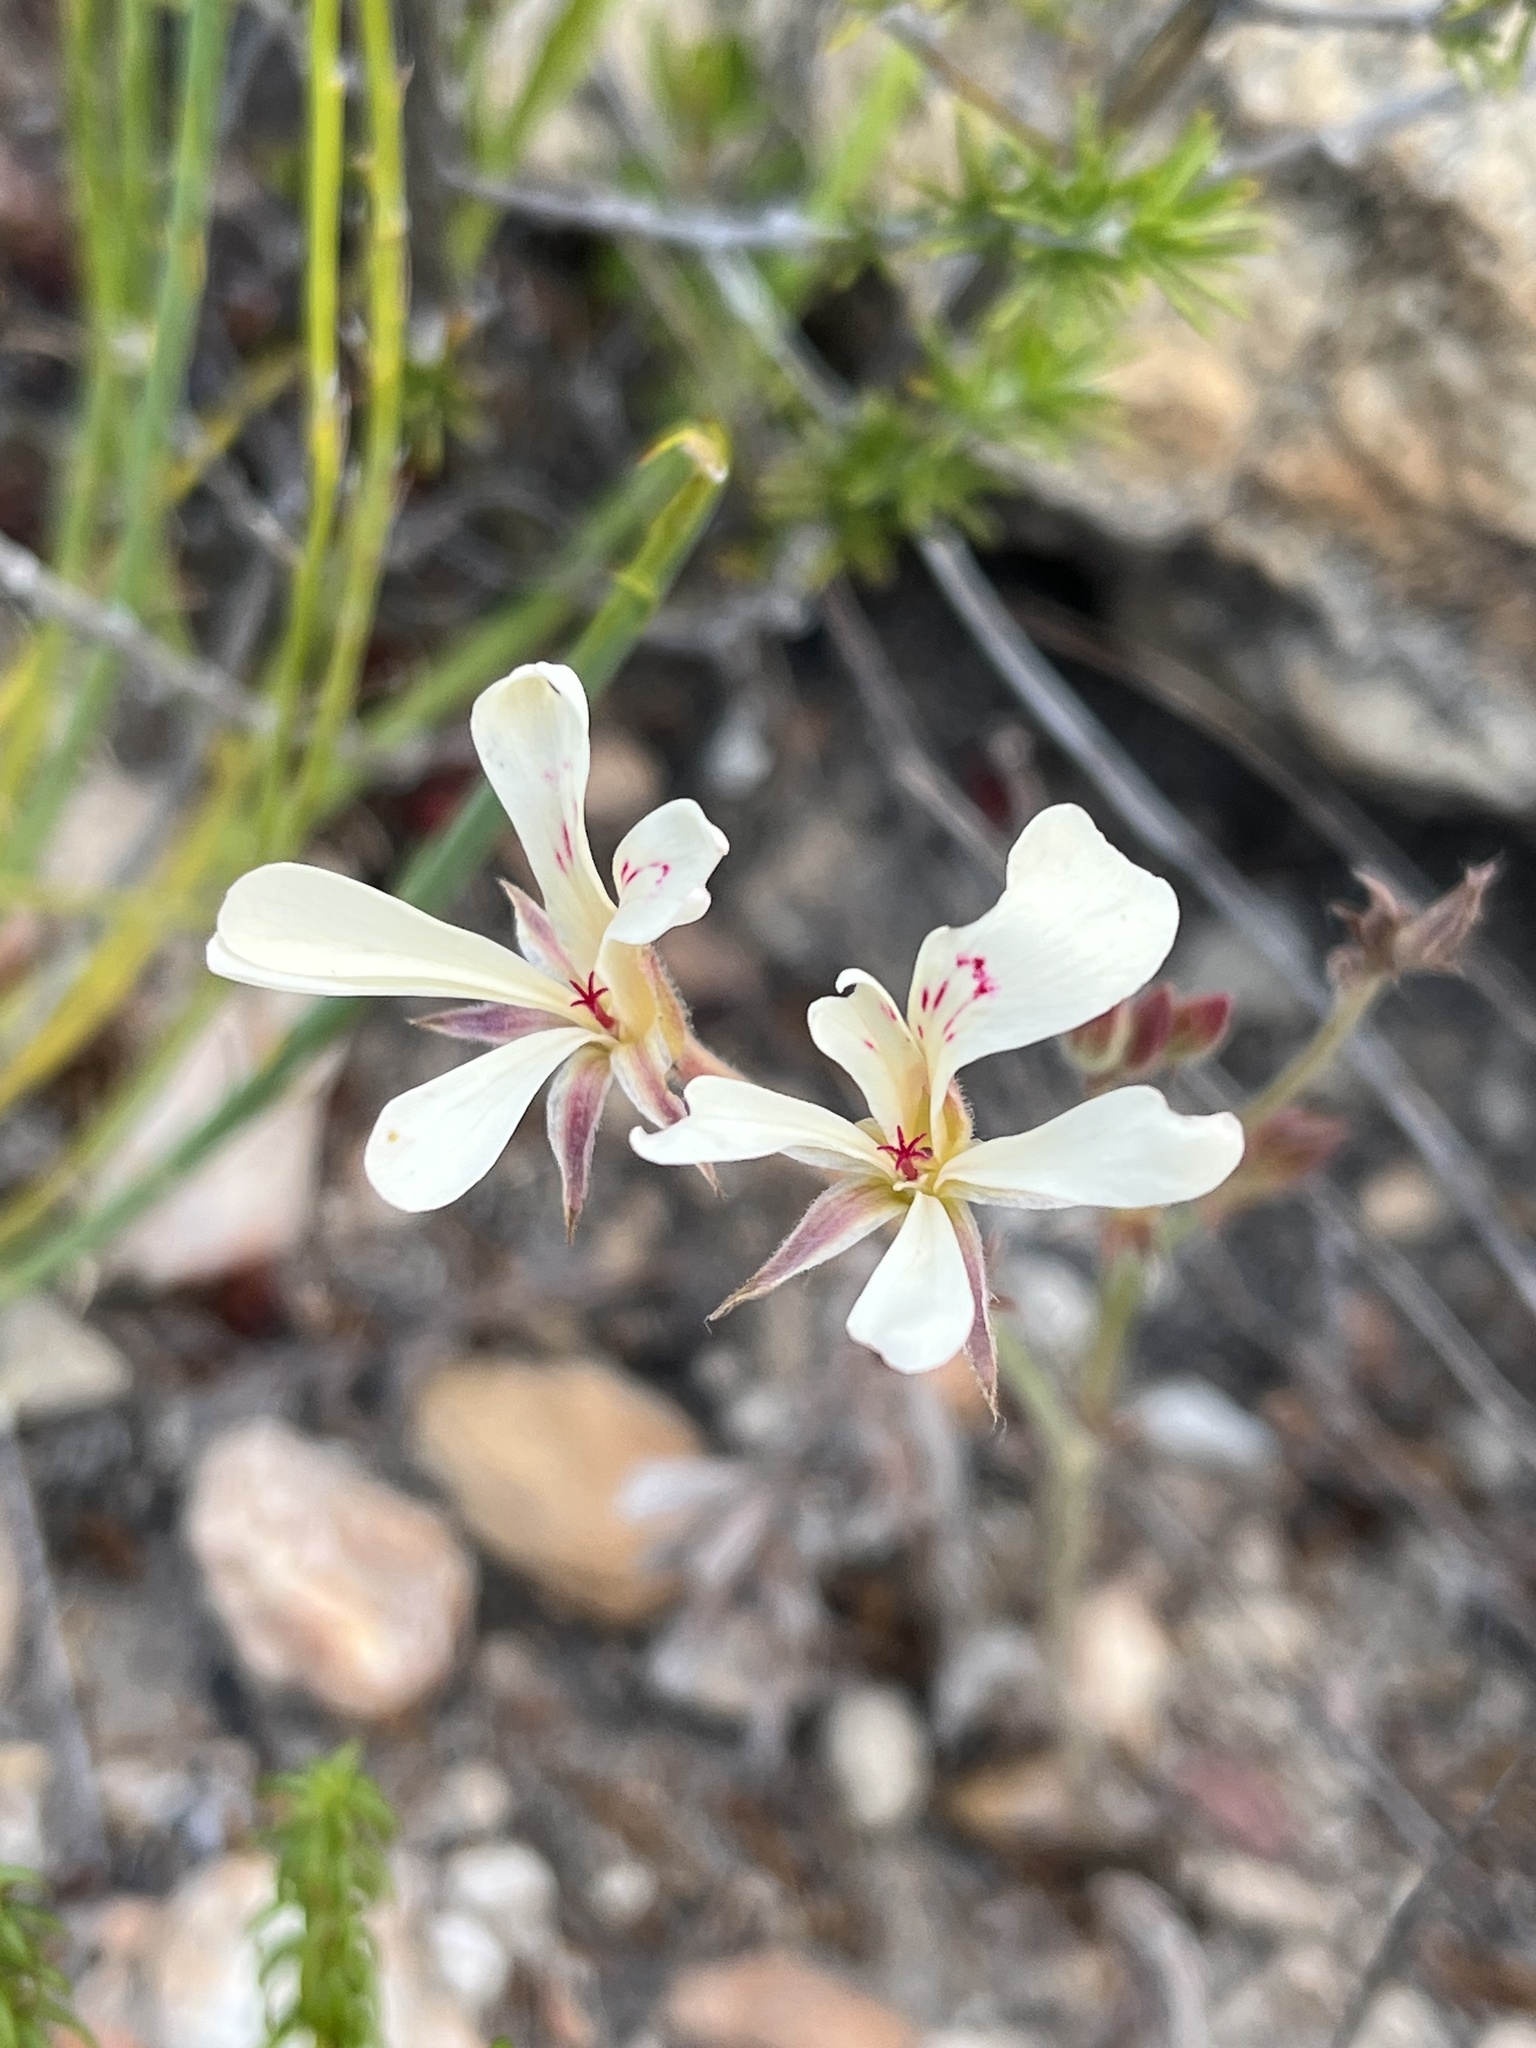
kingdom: Plantae
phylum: Tracheophyta
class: Magnoliopsida
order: Geraniales
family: Geraniaceae
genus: Pelargonium
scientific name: Pelargonium pinnatum
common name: Pinnated pelargonium
